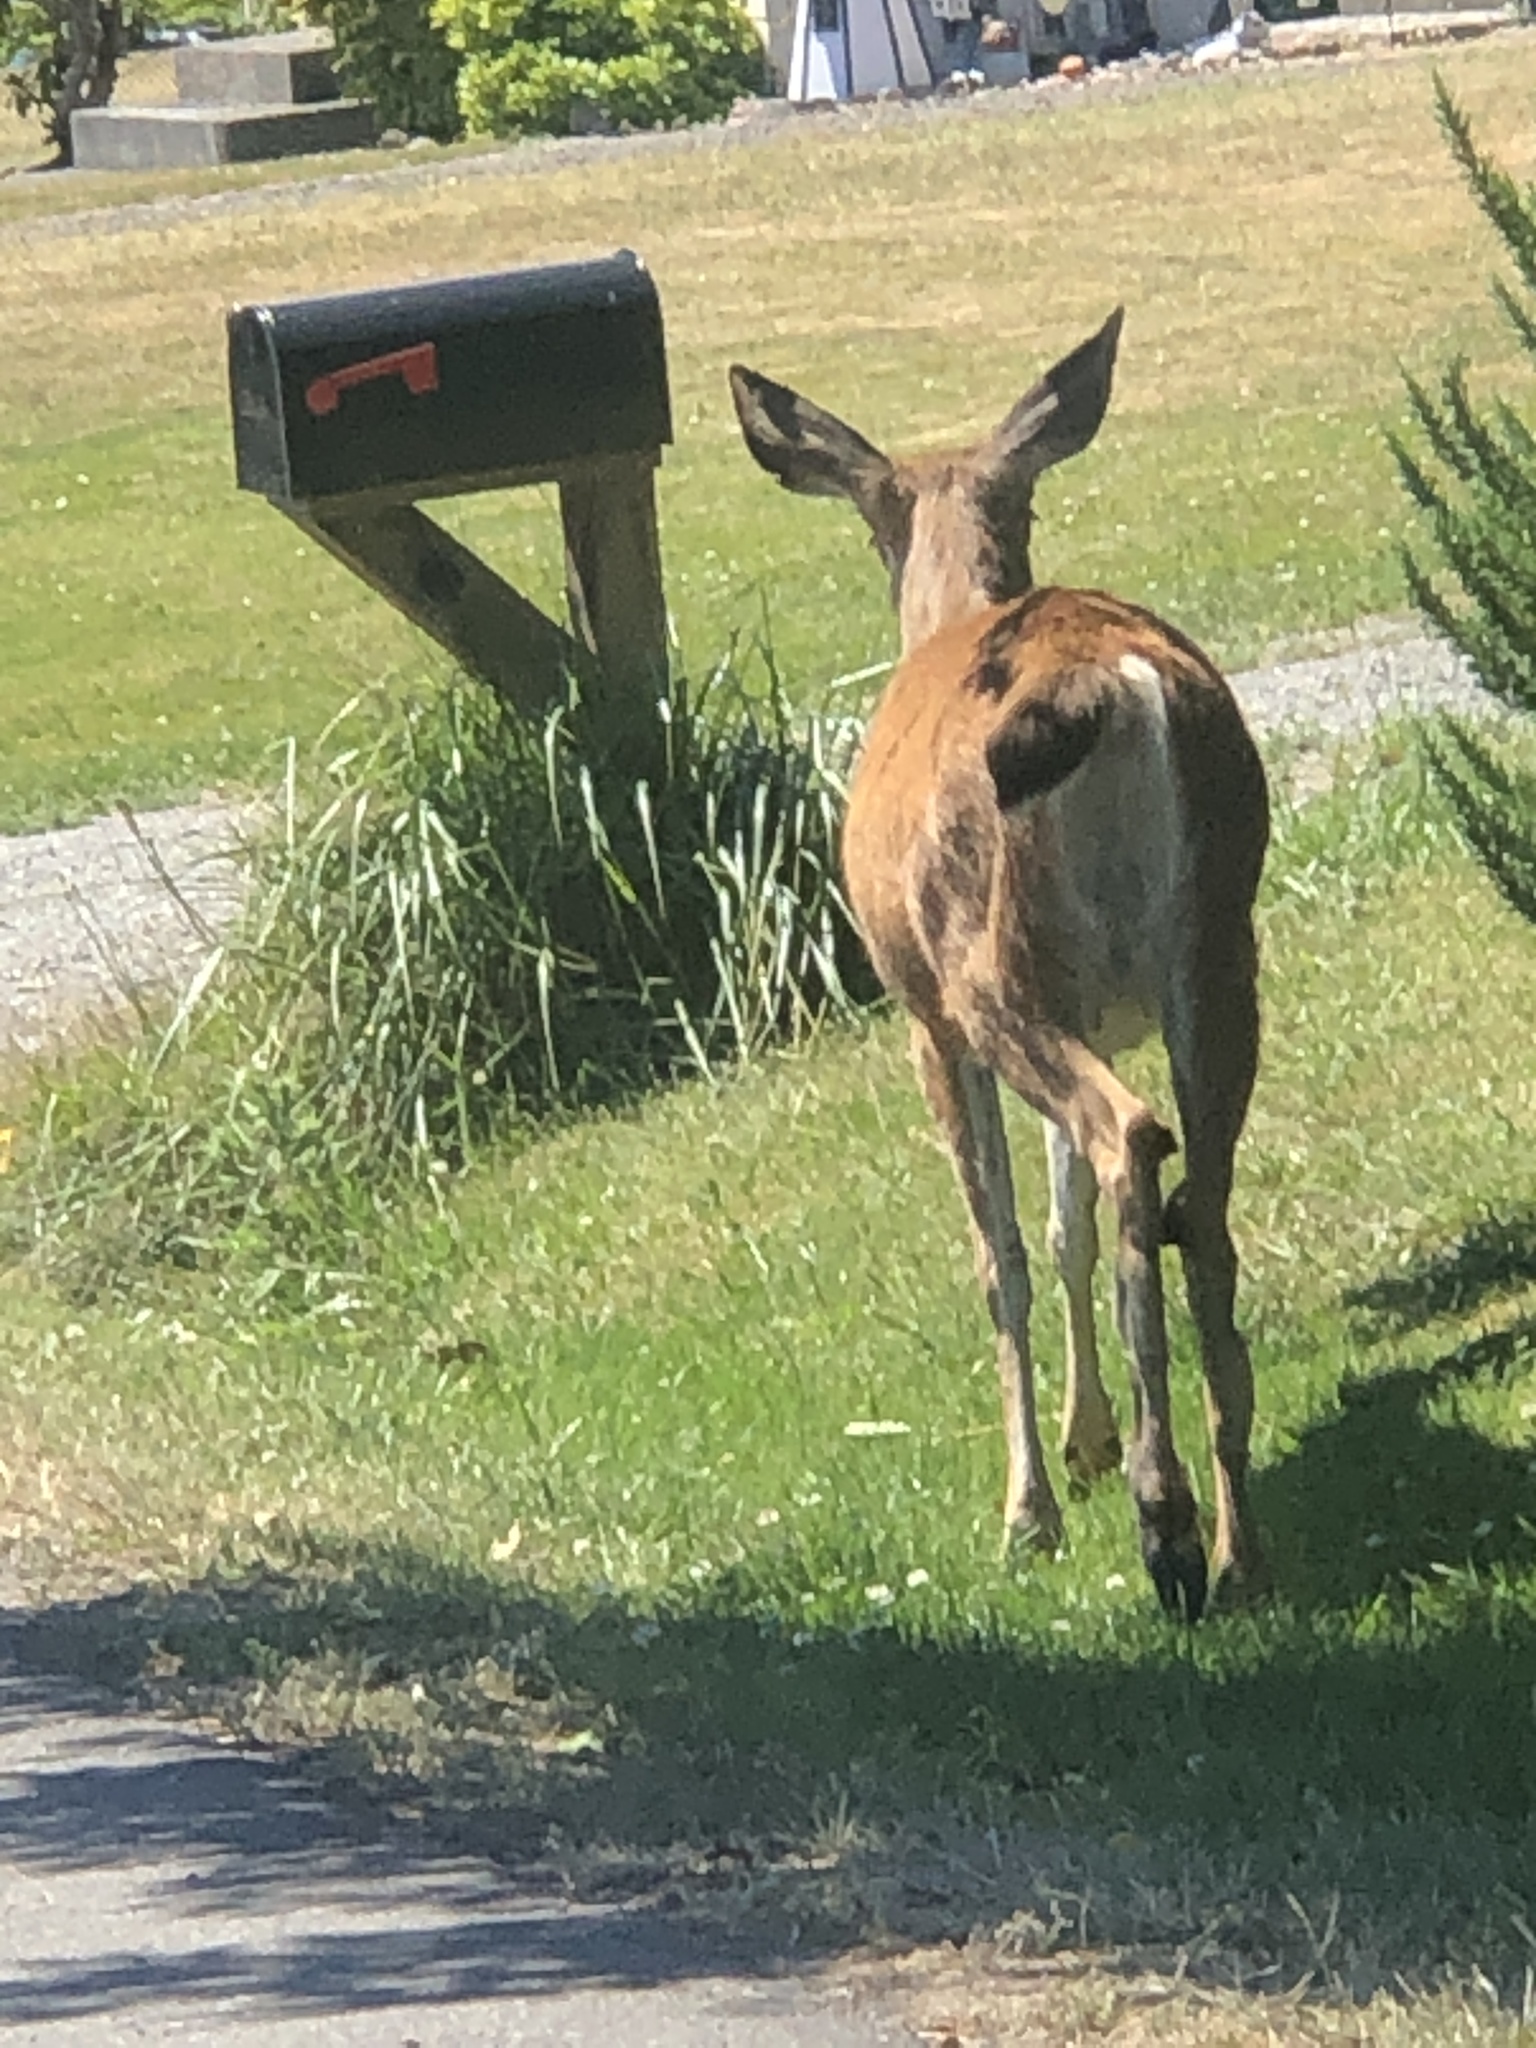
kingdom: Animalia
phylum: Chordata
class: Mammalia
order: Artiodactyla
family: Cervidae
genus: Odocoileus
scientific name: Odocoileus hemionus
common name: Mule deer
